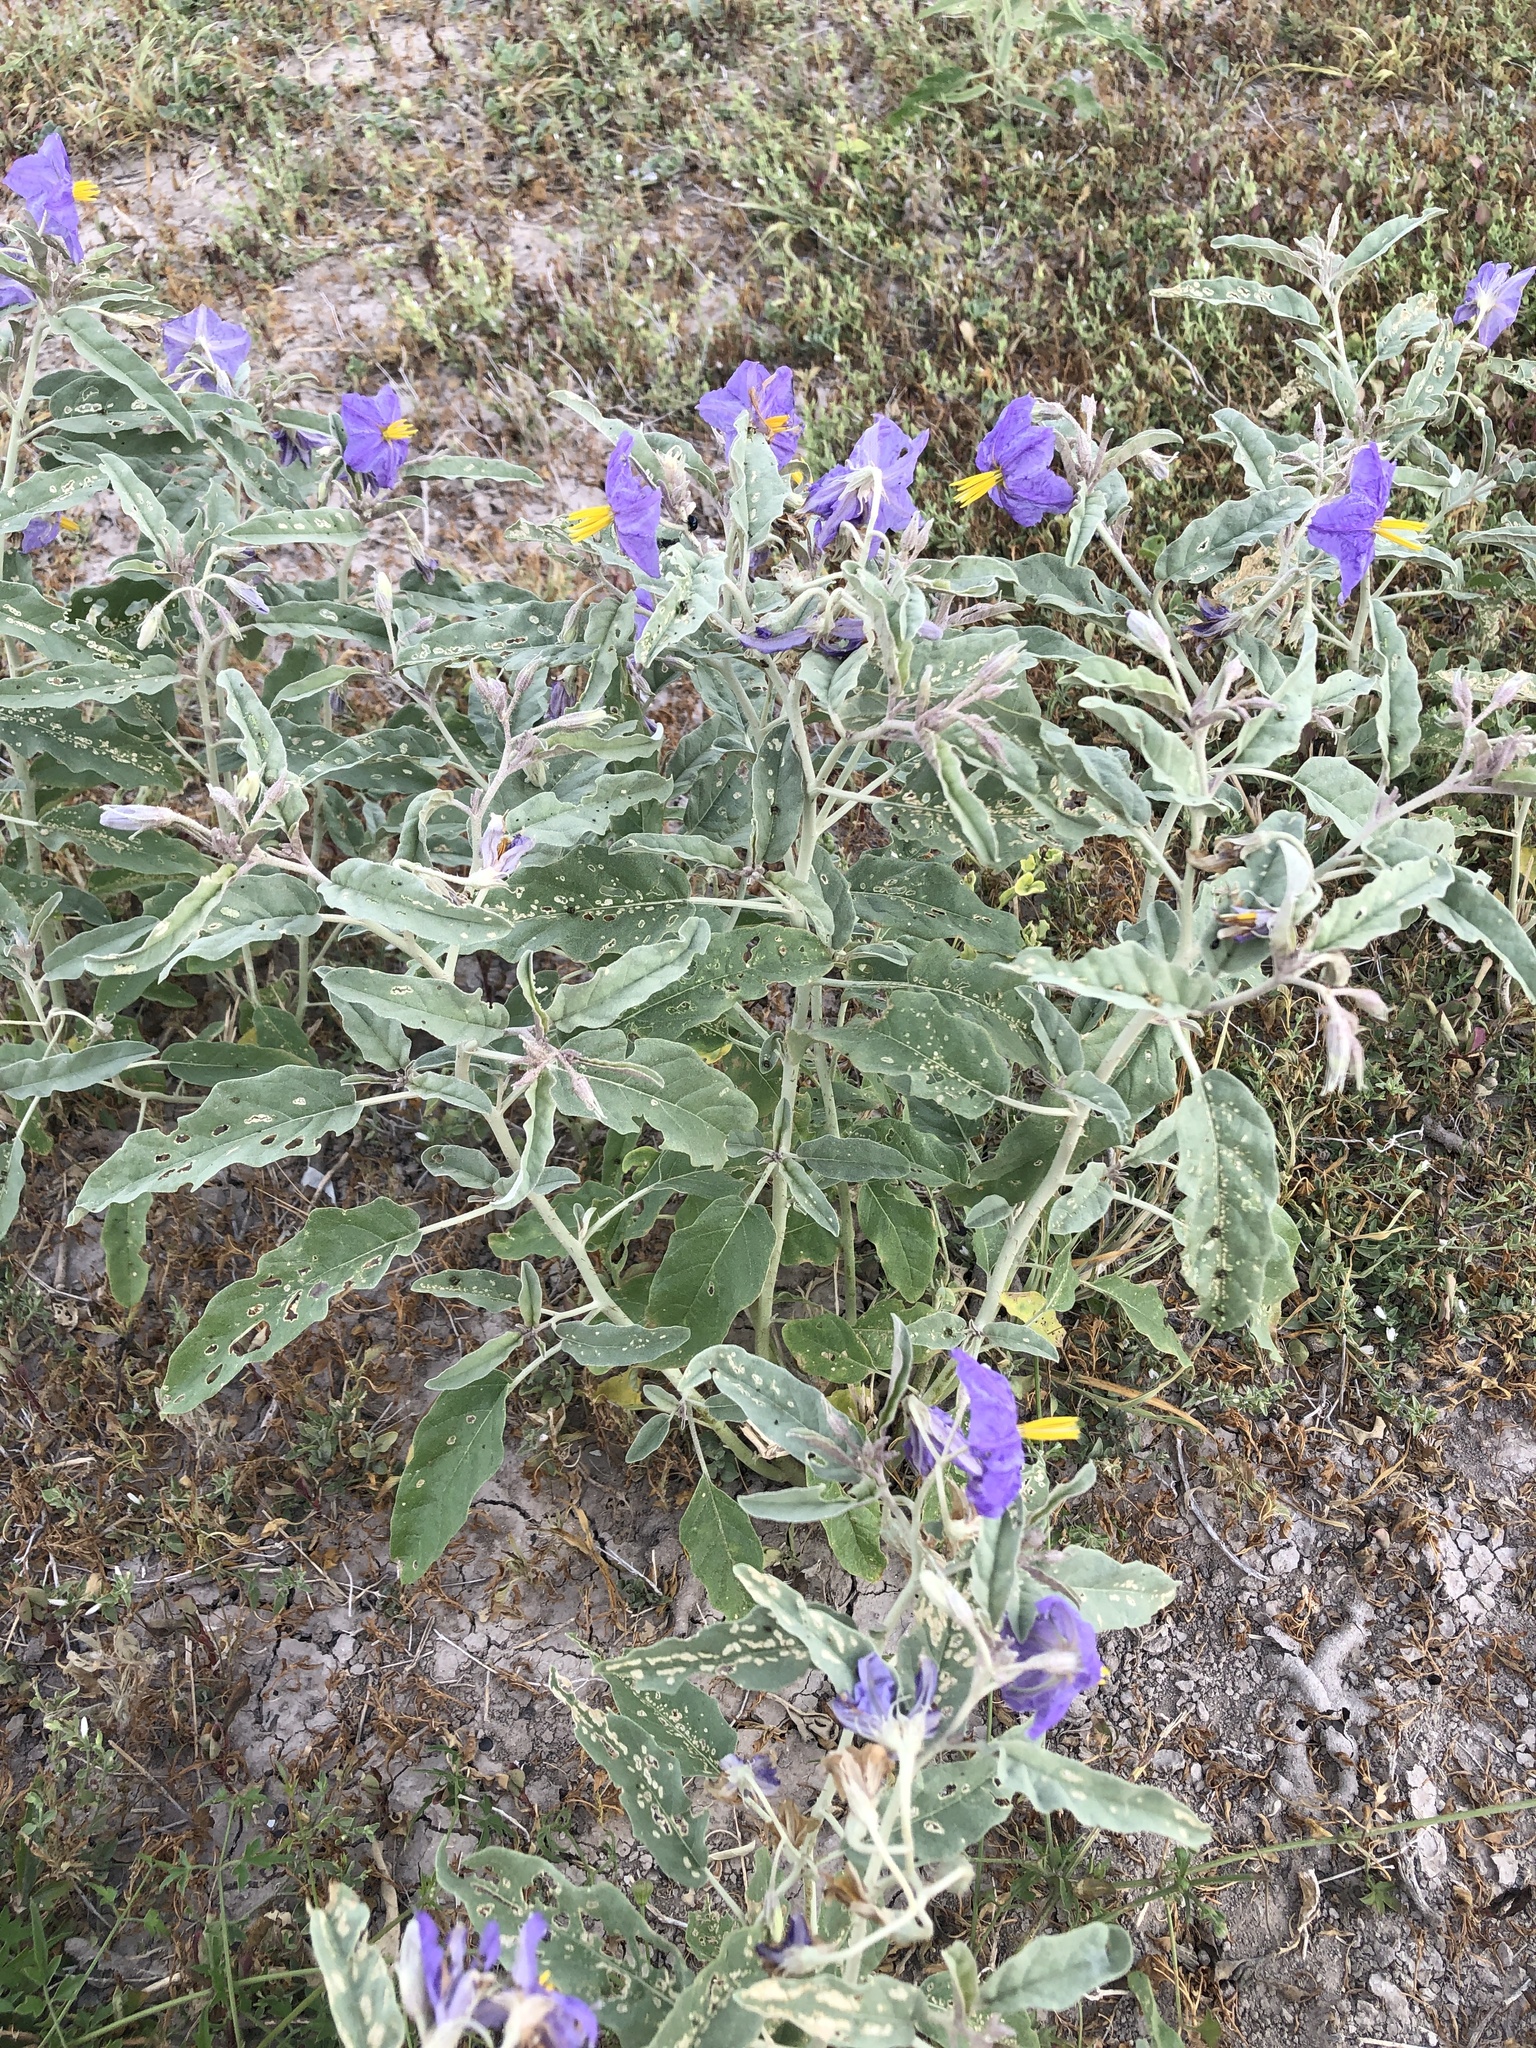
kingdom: Plantae
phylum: Tracheophyta
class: Magnoliopsida
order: Solanales
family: Solanaceae
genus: Solanum
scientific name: Solanum elaeagnifolium
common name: Silverleaf nightshade
